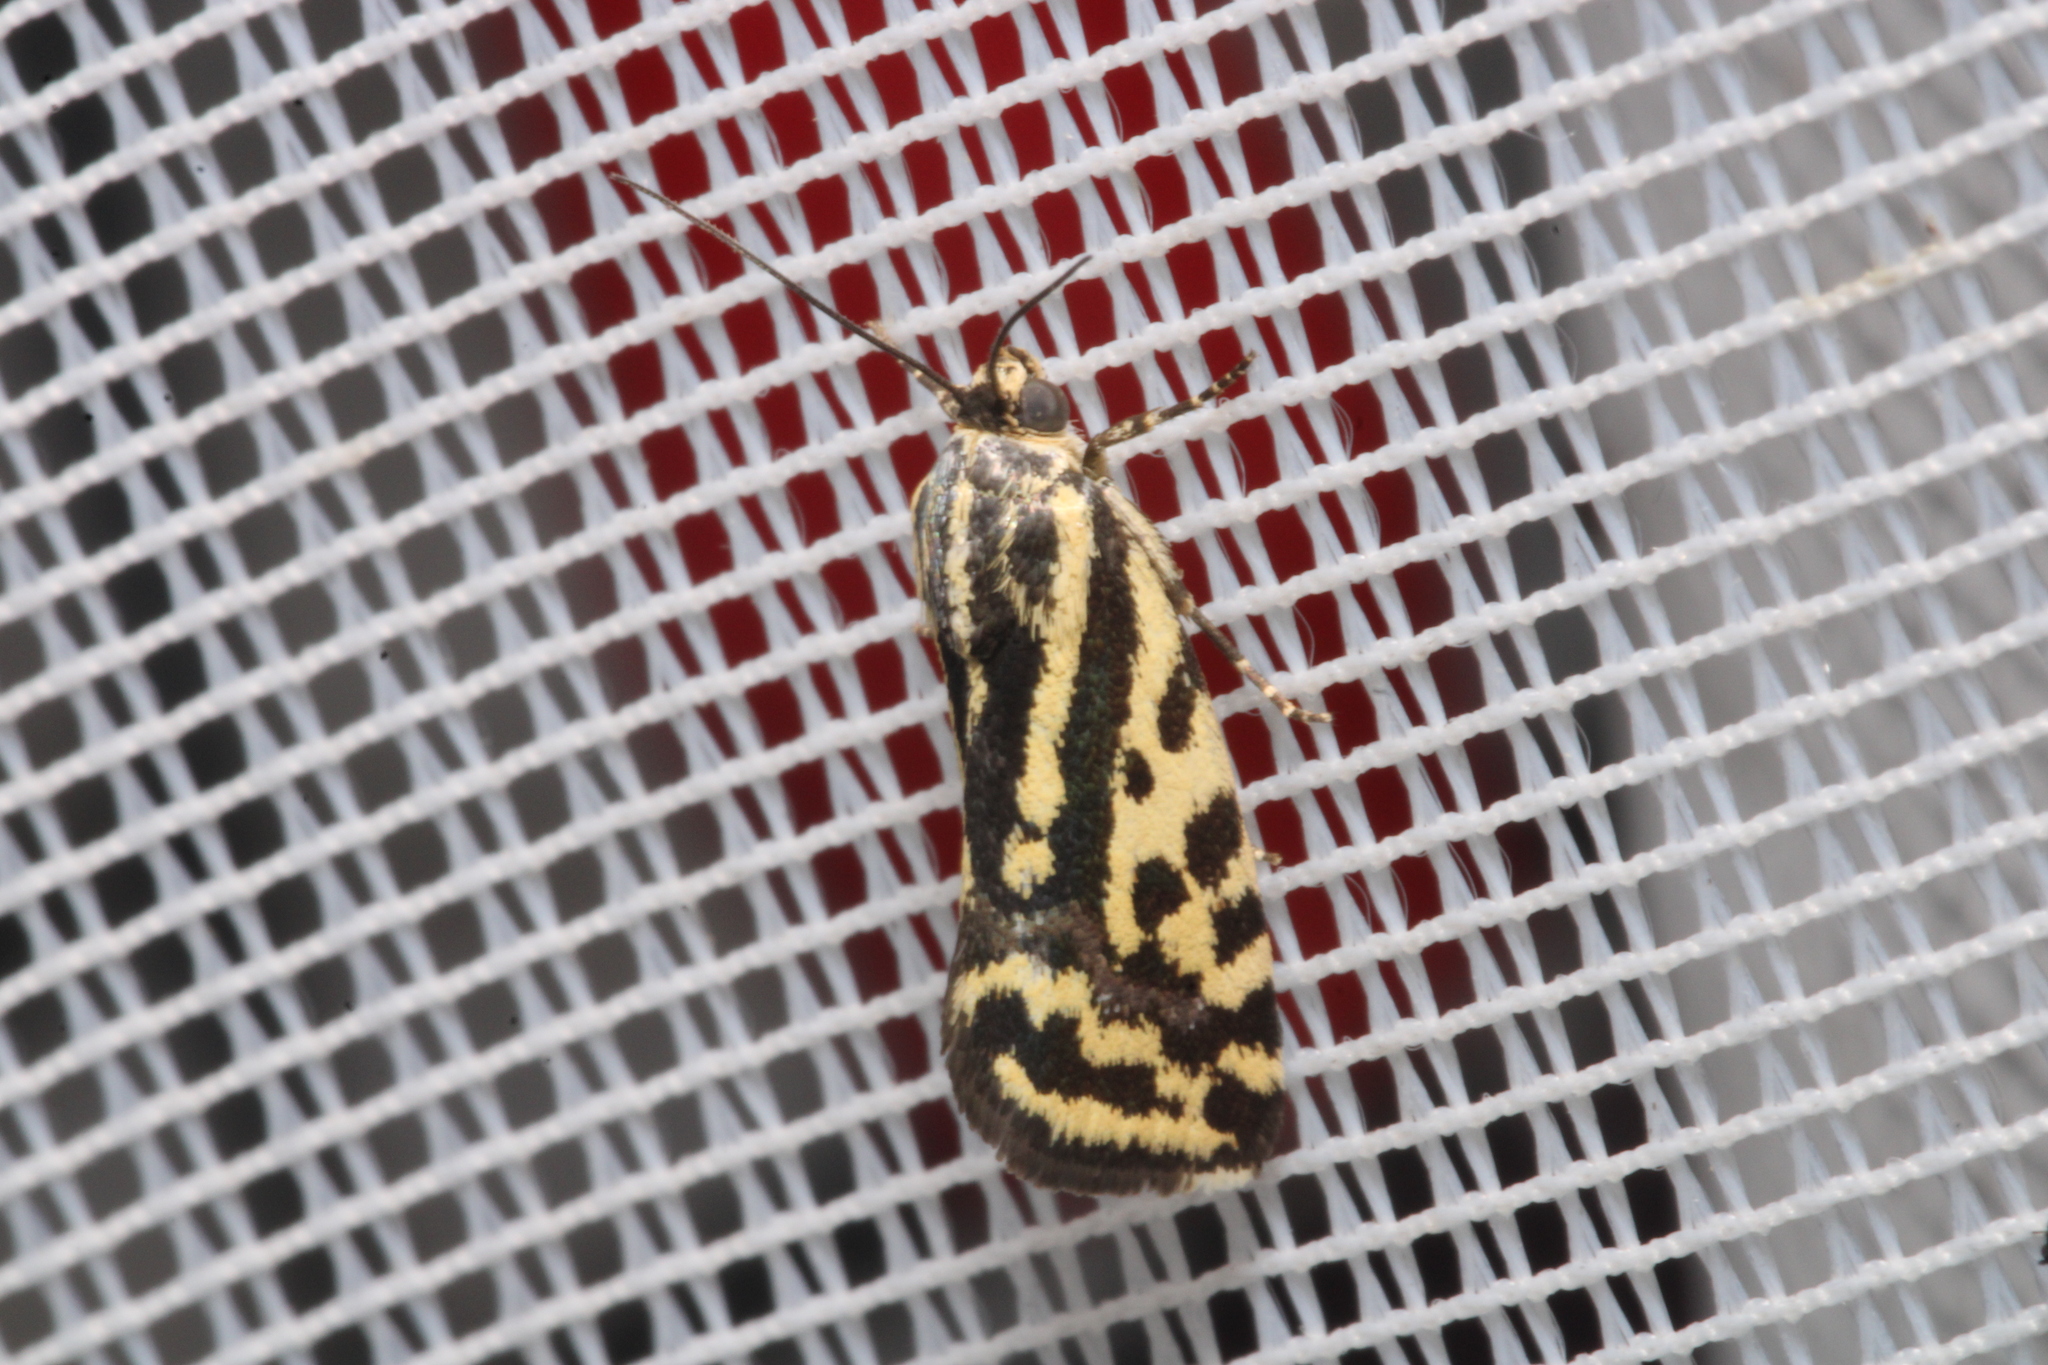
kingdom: Animalia
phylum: Arthropoda
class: Insecta
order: Lepidoptera
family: Noctuidae
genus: Acontia
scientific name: Acontia trabealis
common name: Spotted sulphur
